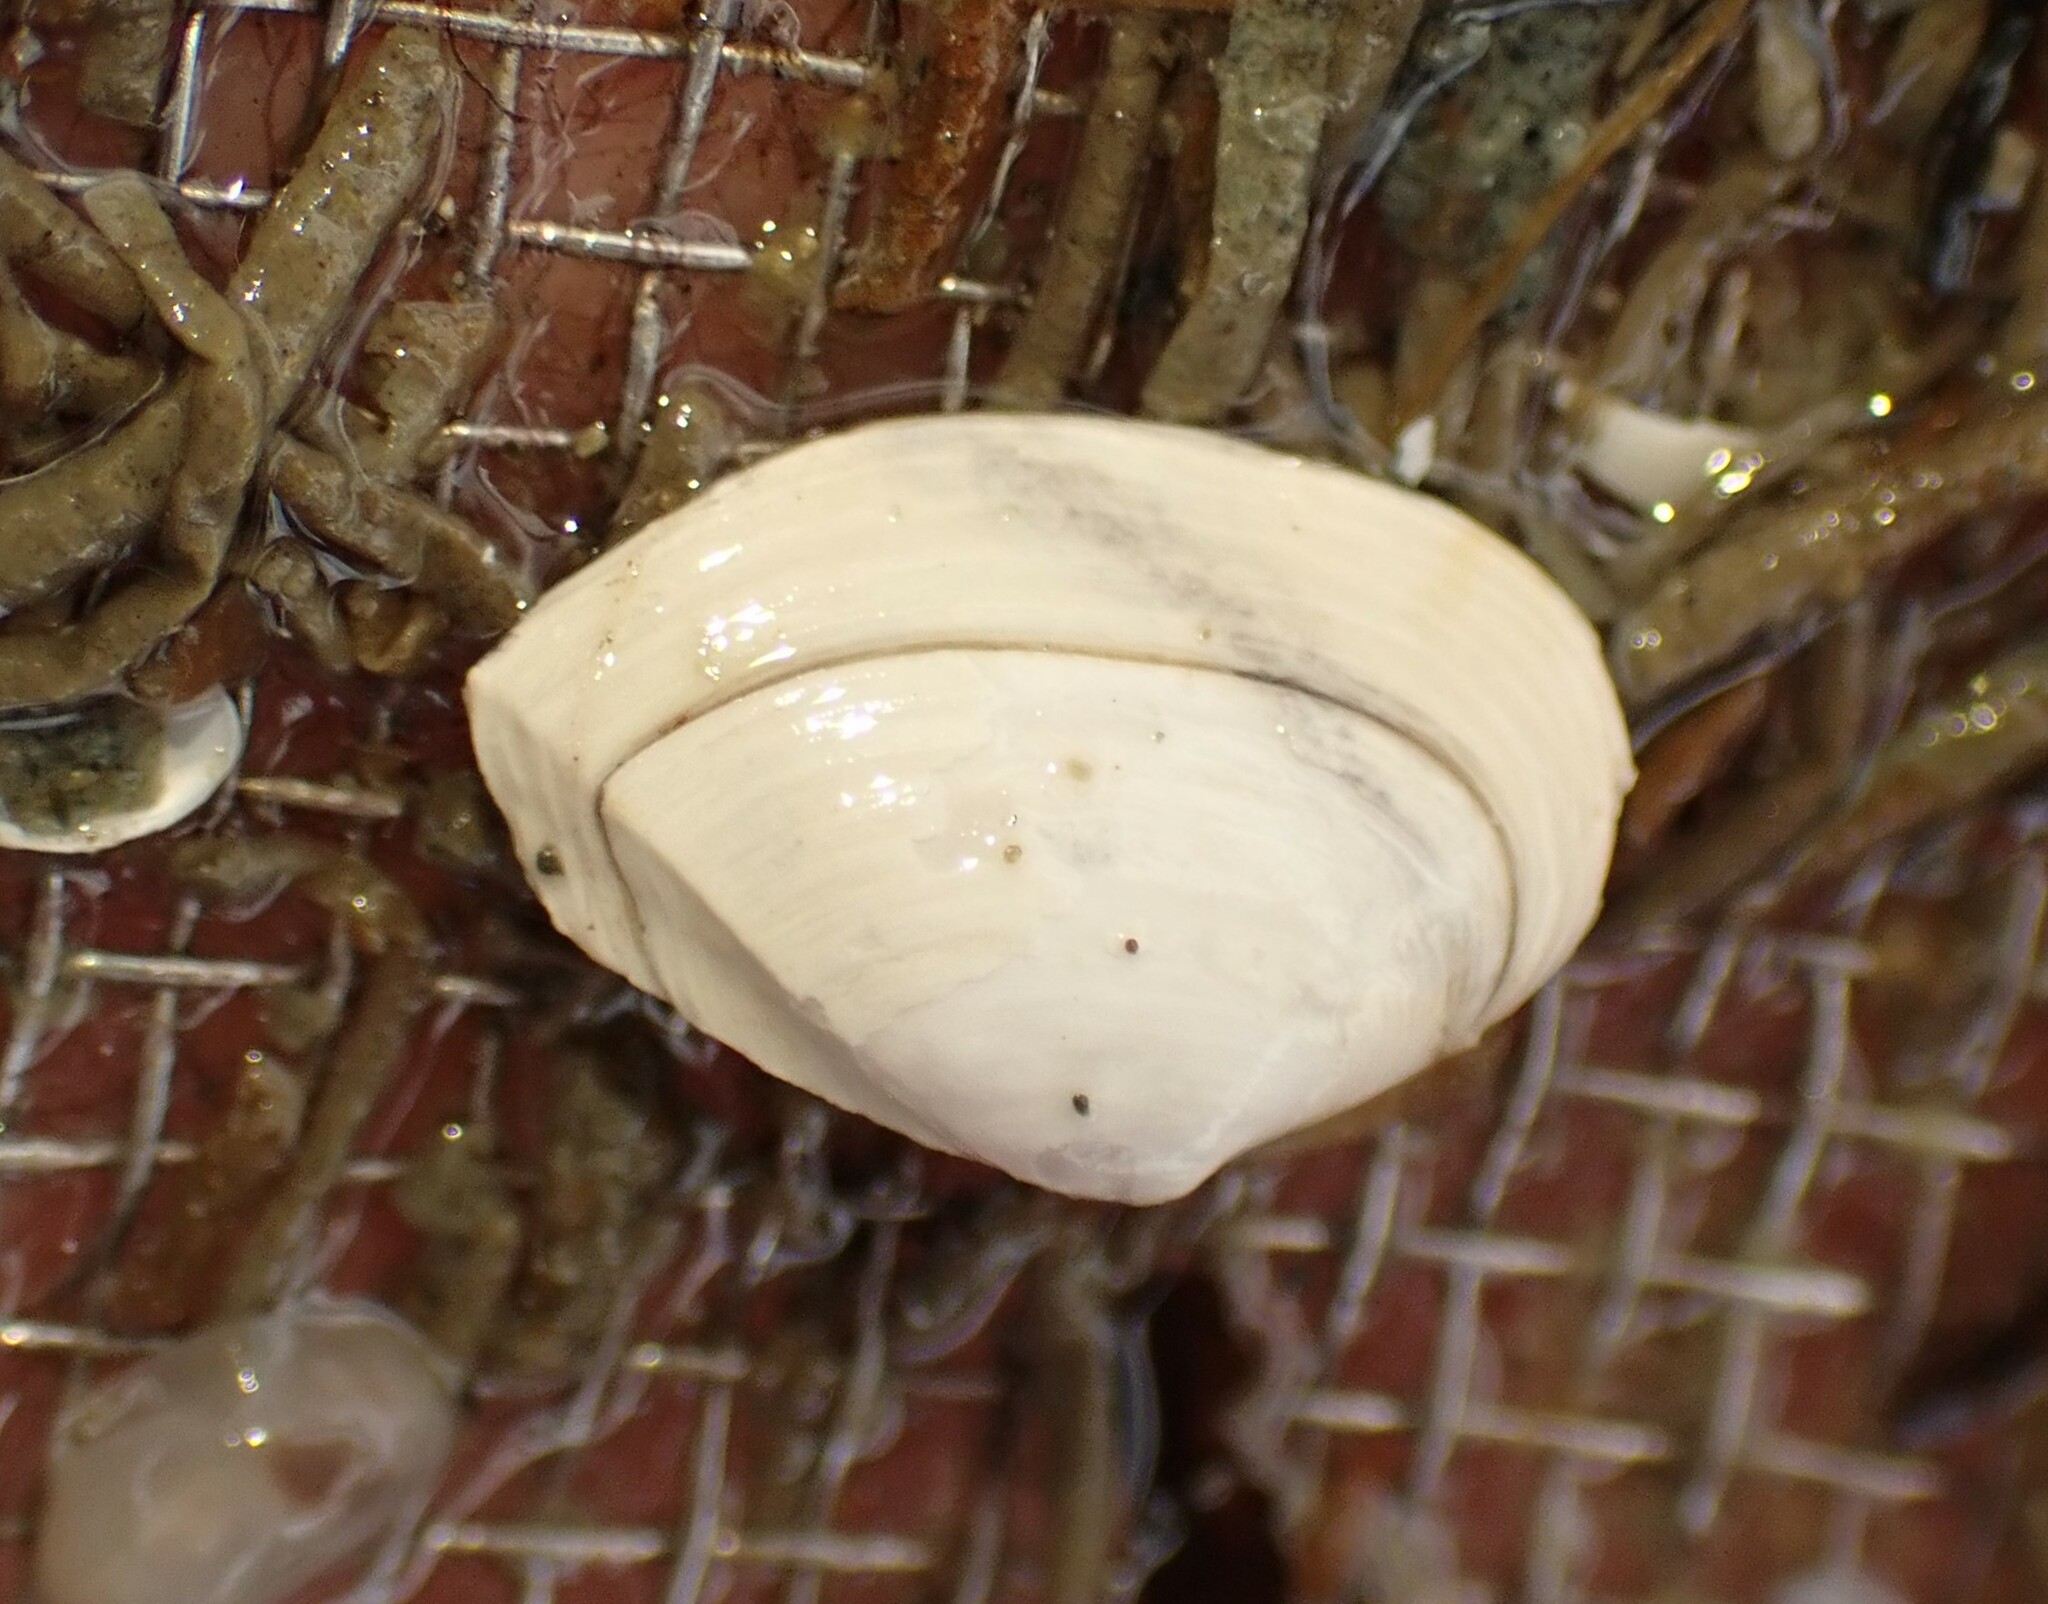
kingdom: Animalia
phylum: Mollusca
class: Bivalvia
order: Myida
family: Corbulidae
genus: Corbula
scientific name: Corbula zelandica
